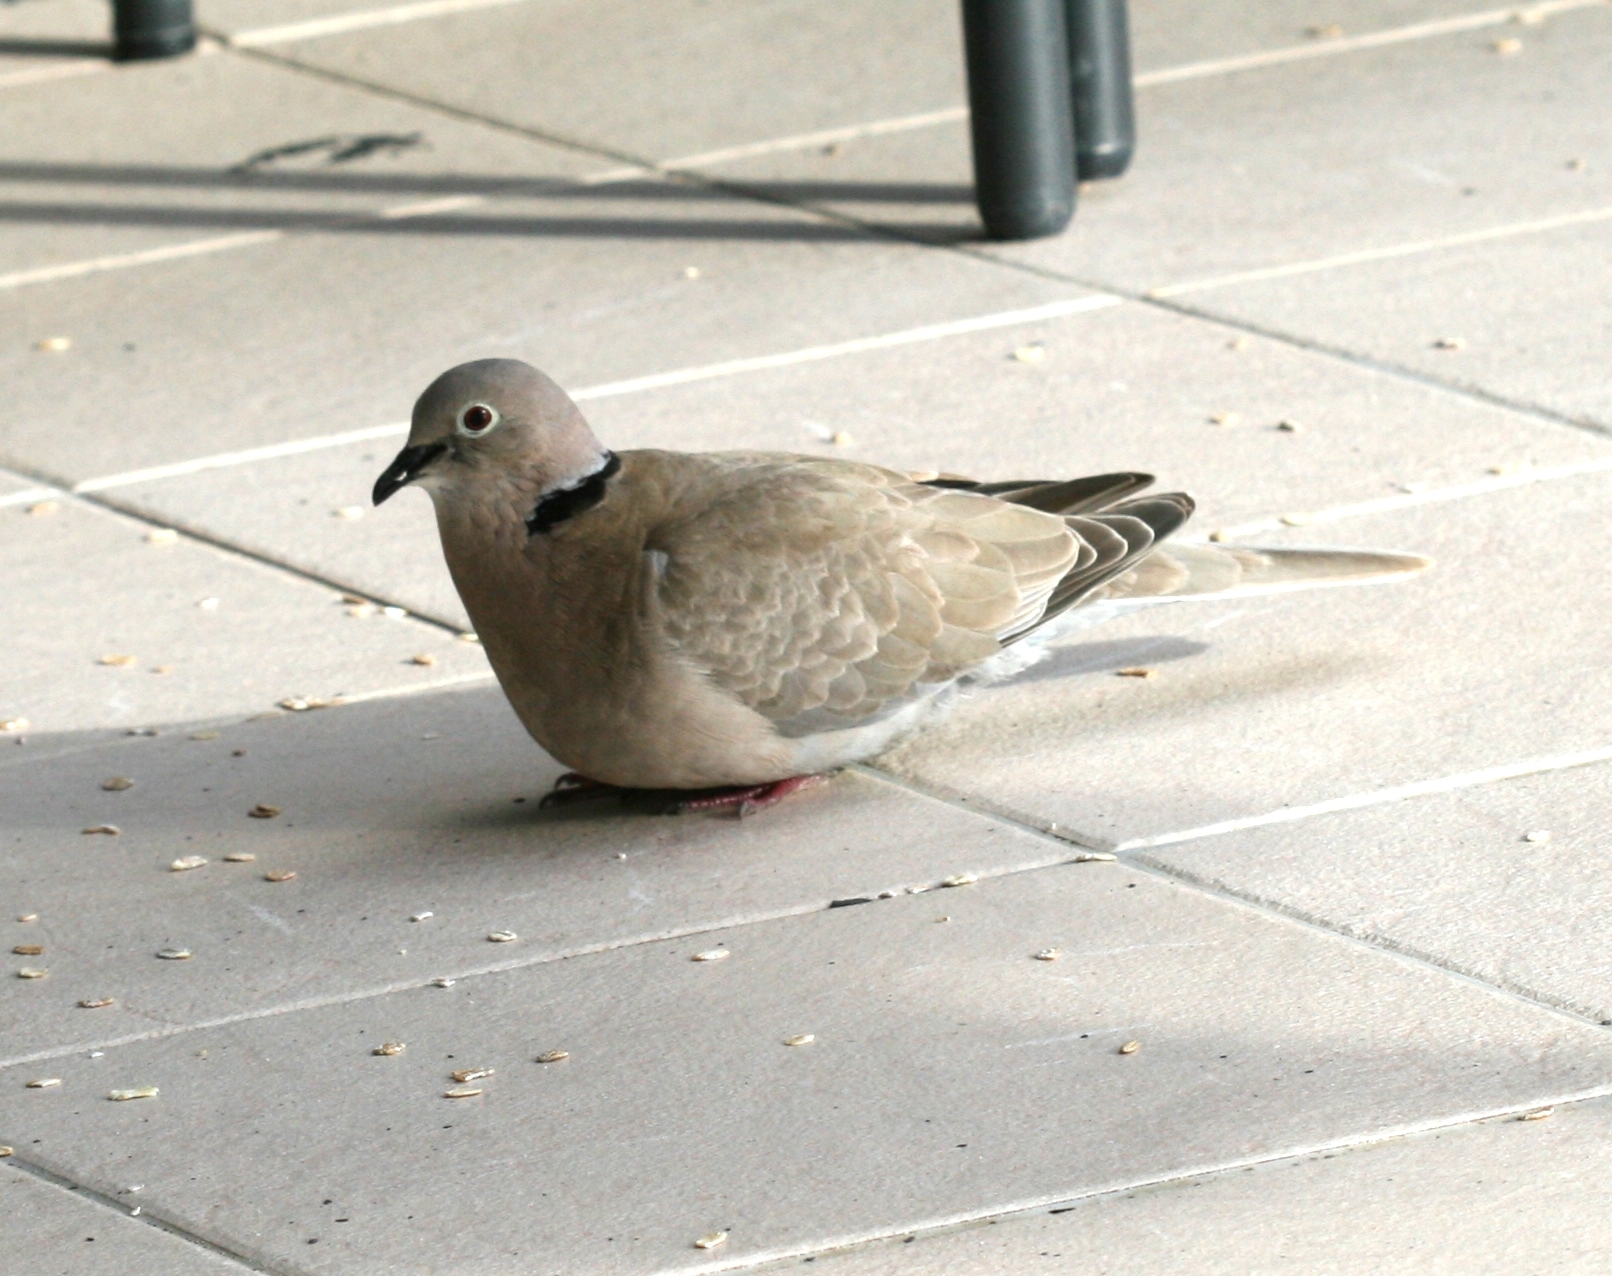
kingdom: Animalia
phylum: Chordata
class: Aves
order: Columbiformes
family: Columbidae
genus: Streptopelia
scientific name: Streptopelia decaocto
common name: Eurasian collared dove
